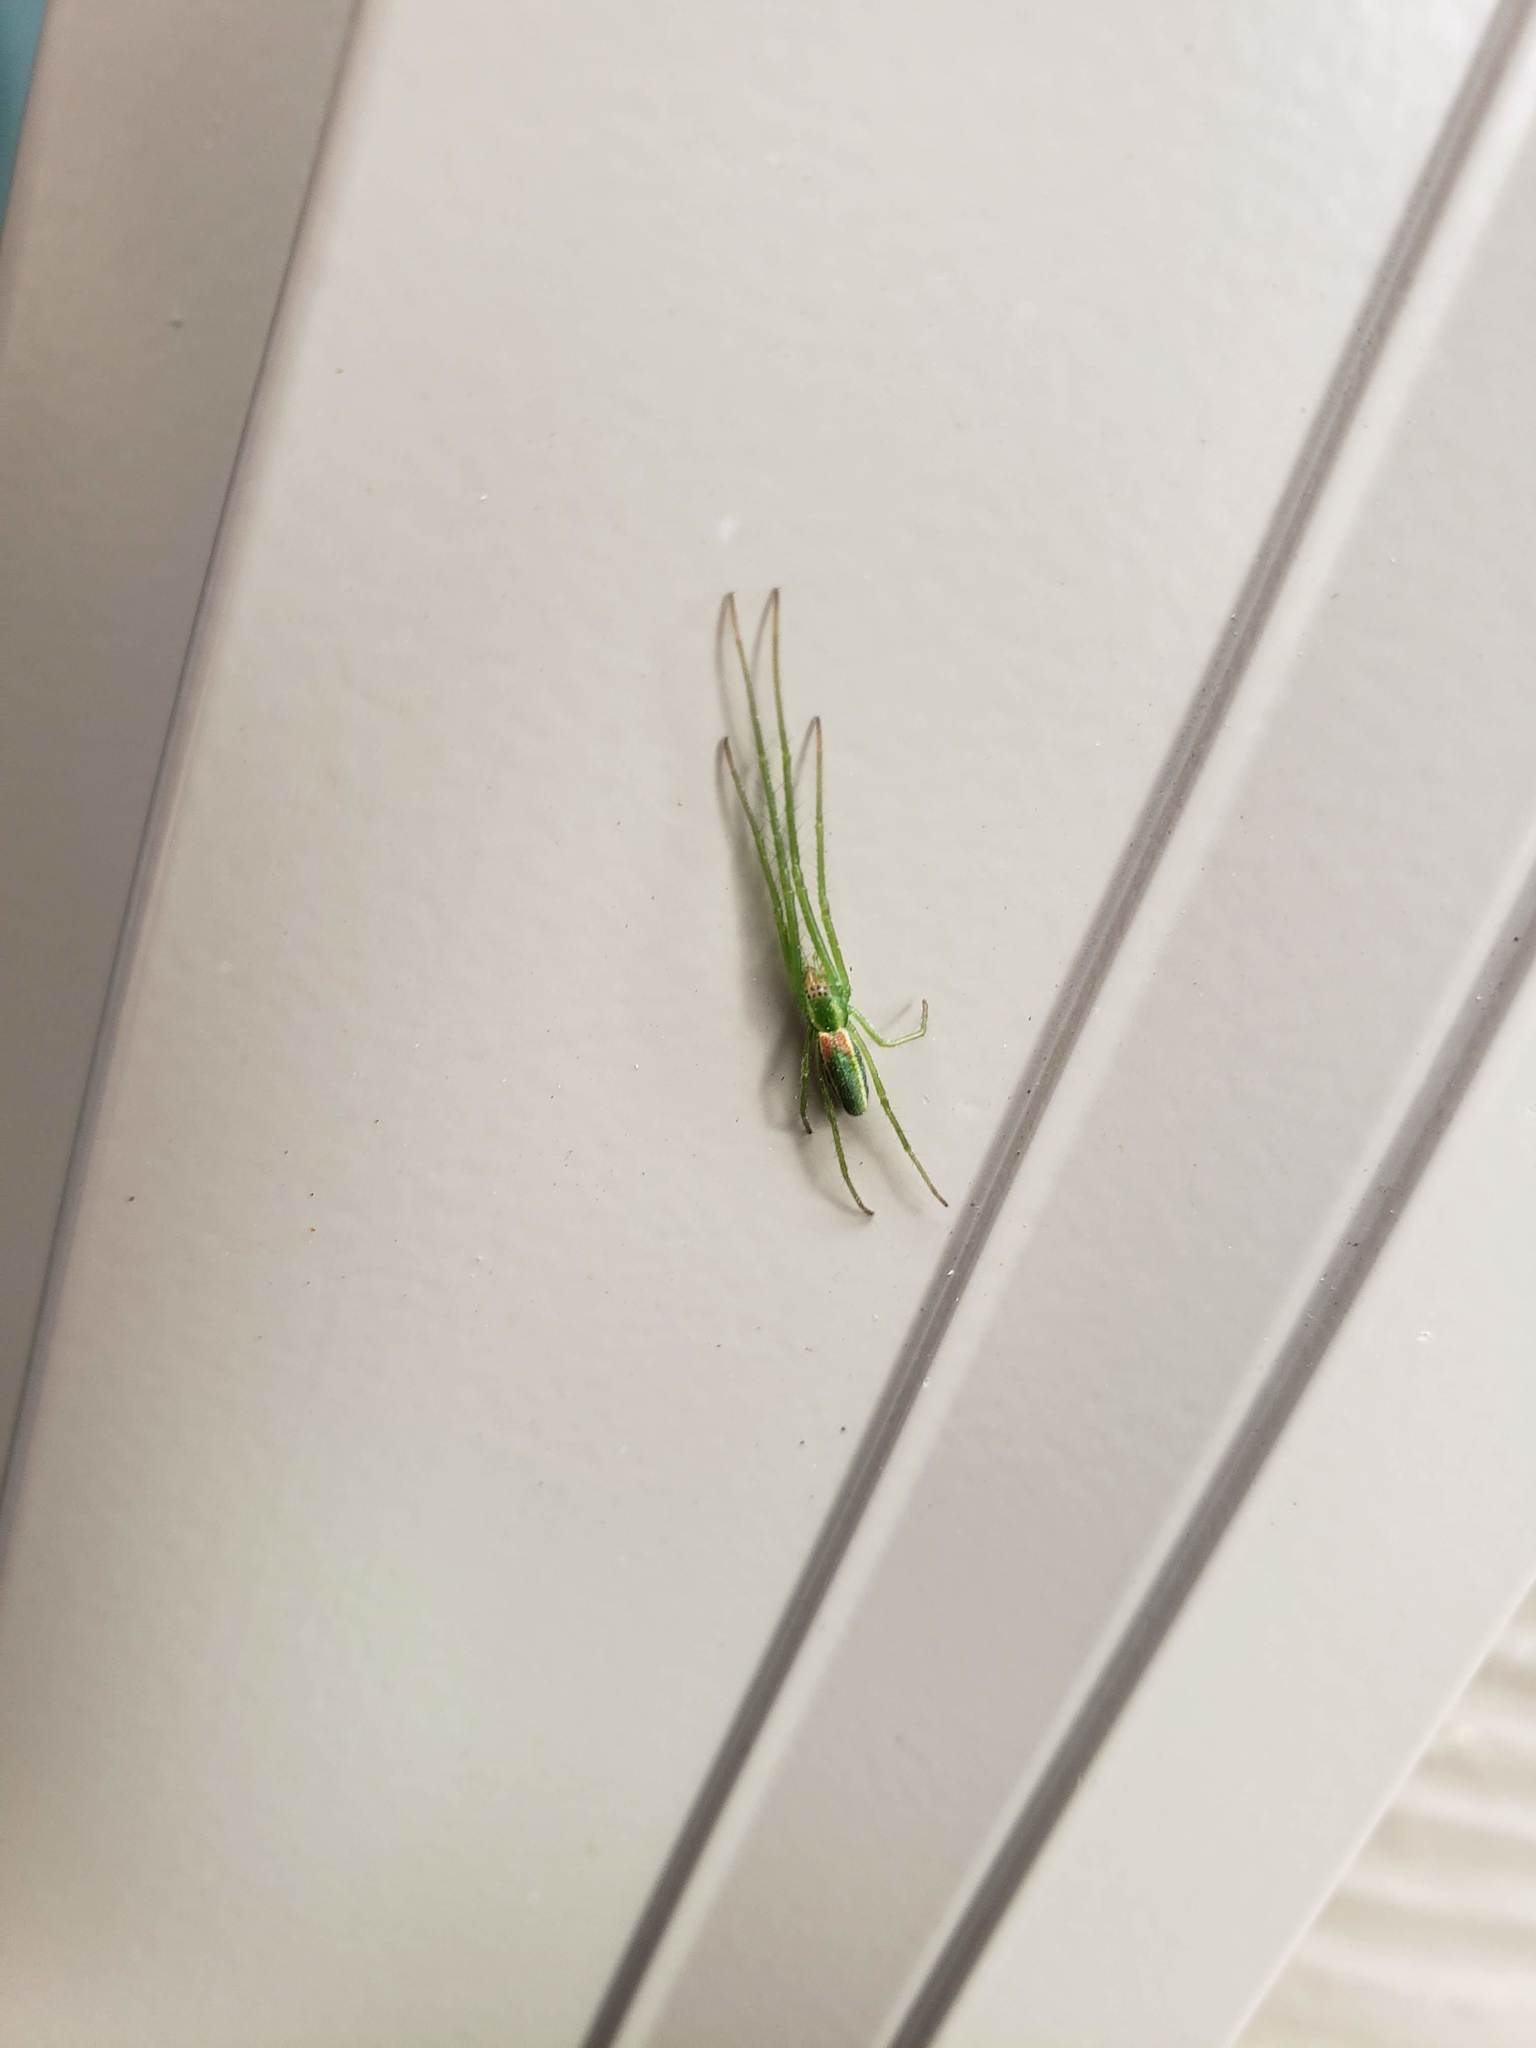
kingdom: Animalia
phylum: Arthropoda
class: Arachnida
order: Araneae
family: Tetragnathidae
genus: Tetragnatha
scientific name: Tetragnatha viridis
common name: Green long-jawed spider
